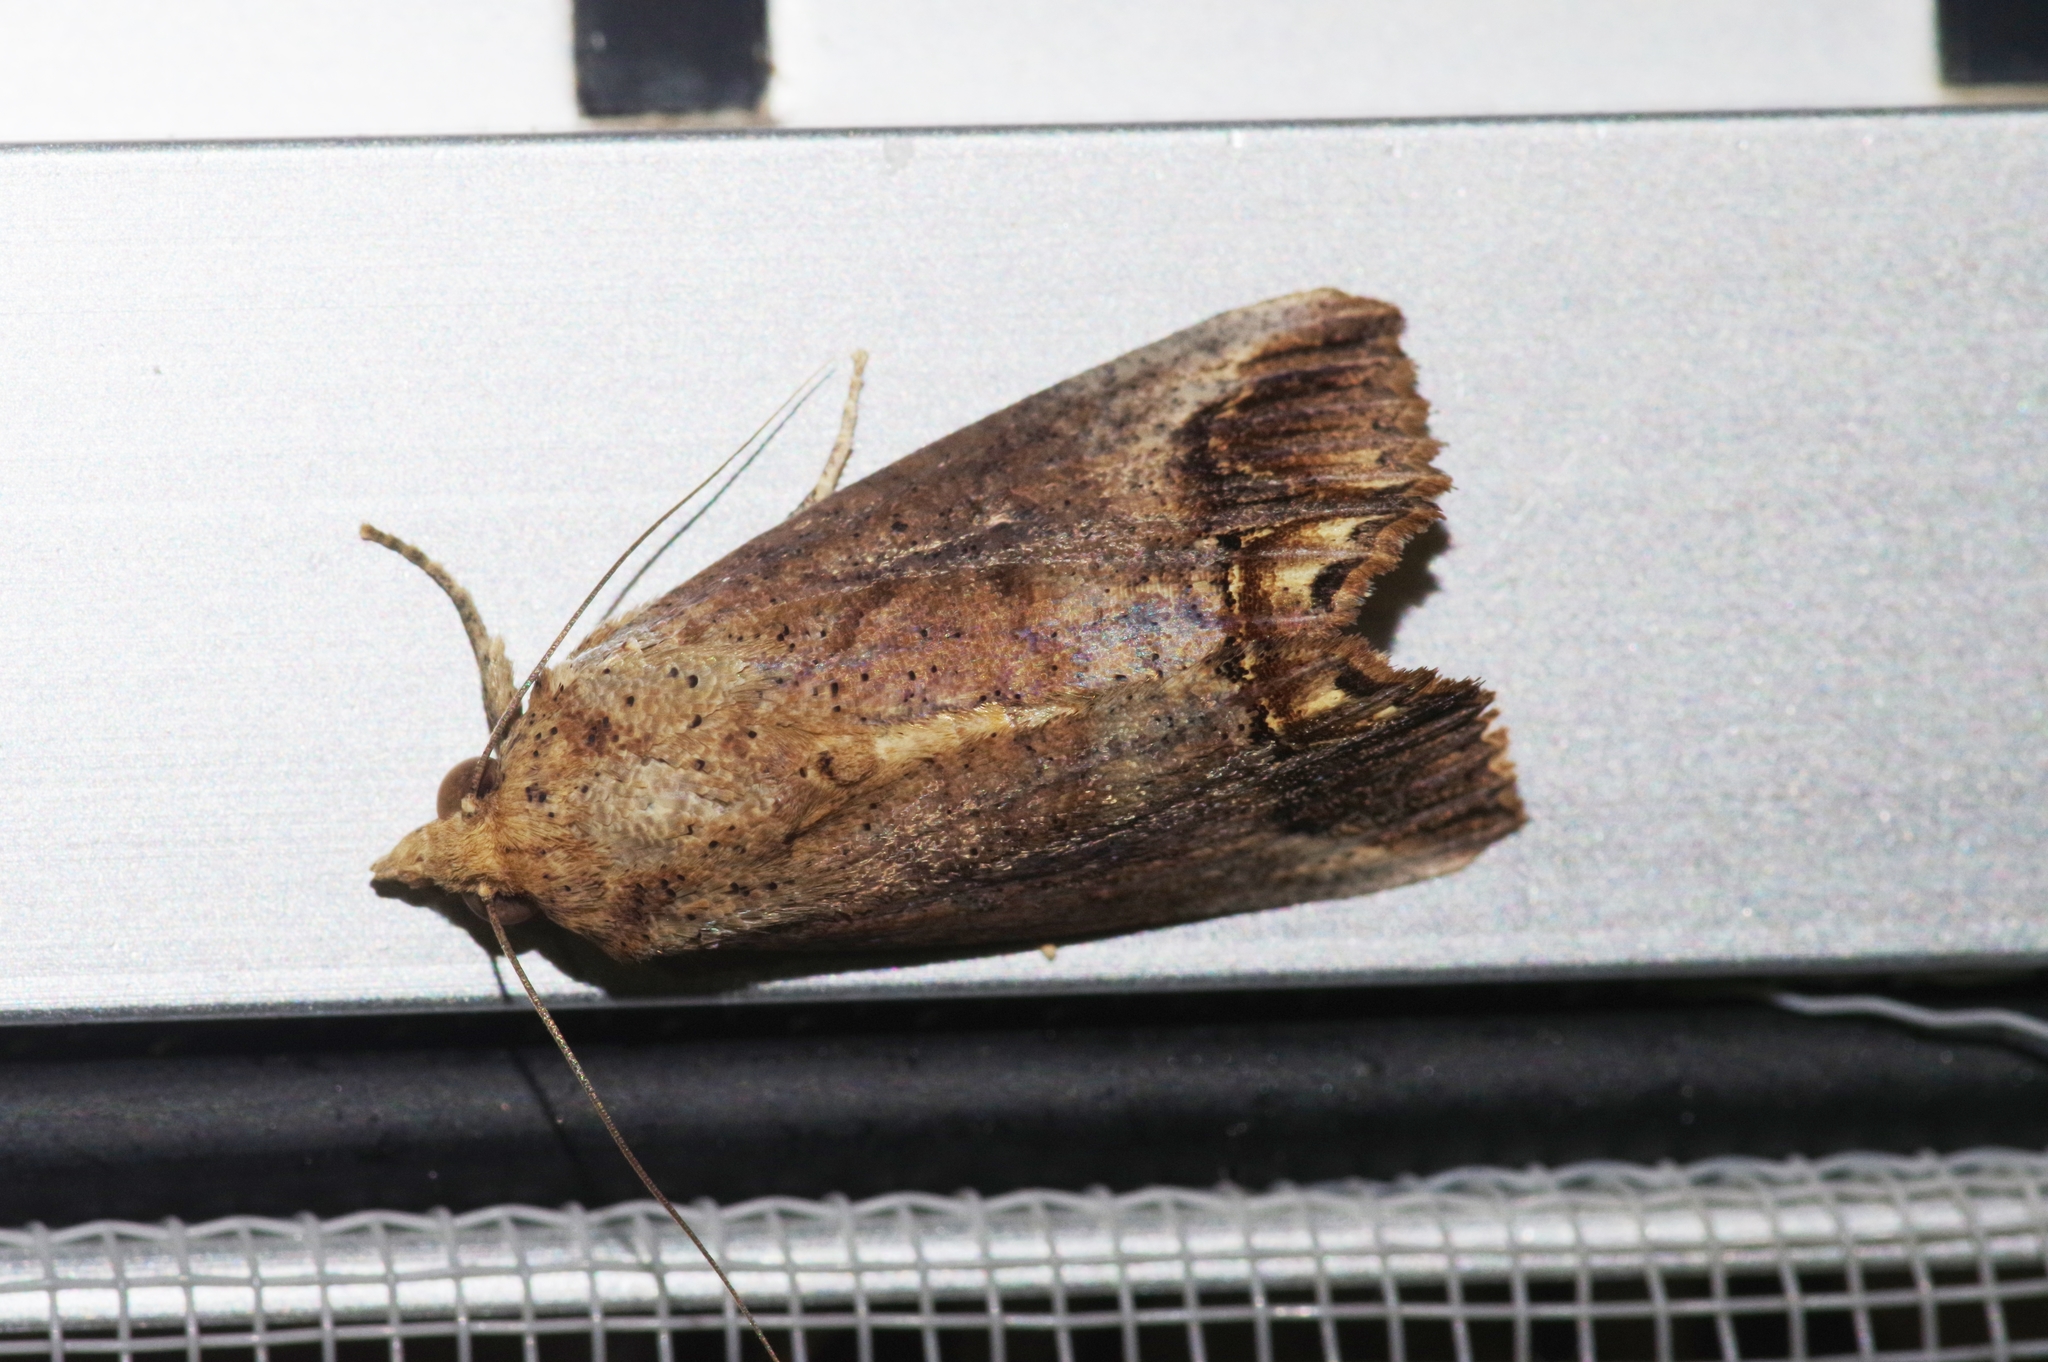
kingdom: Animalia
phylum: Arthropoda
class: Insecta
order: Lepidoptera
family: Erebidae
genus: Hypocala
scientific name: Hypocala biarcuata
